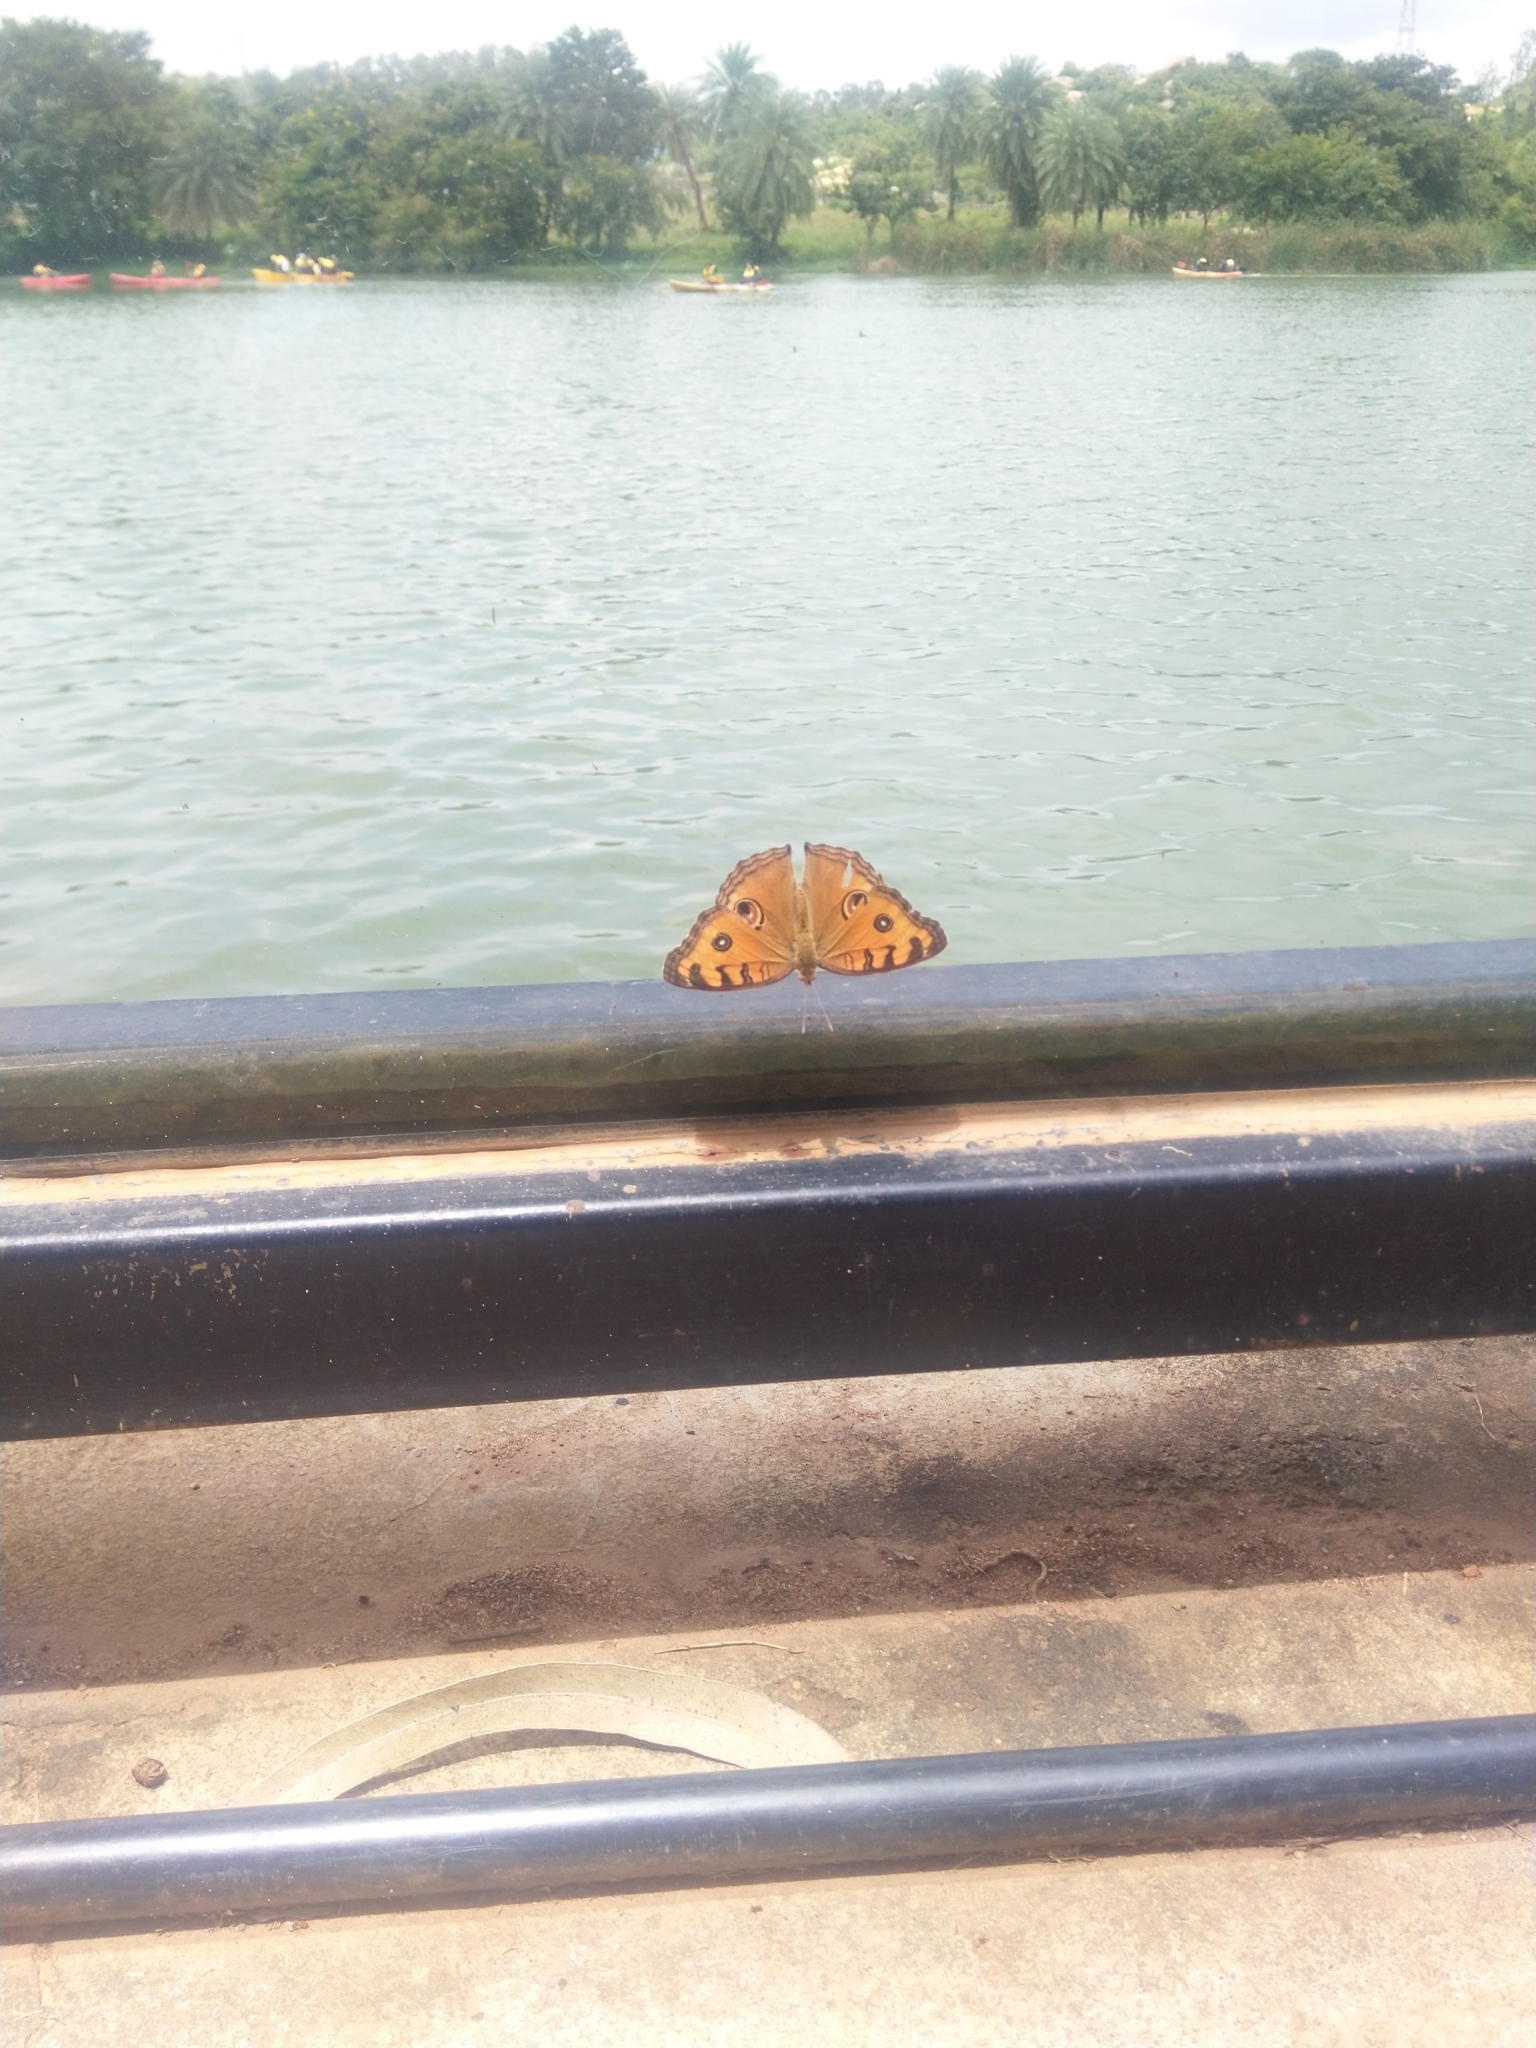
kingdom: Animalia
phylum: Arthropoda
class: Insecta
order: Lepidoptera
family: Nymphalidae
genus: Junonia
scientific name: Junonia almana
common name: Peacock pansy
